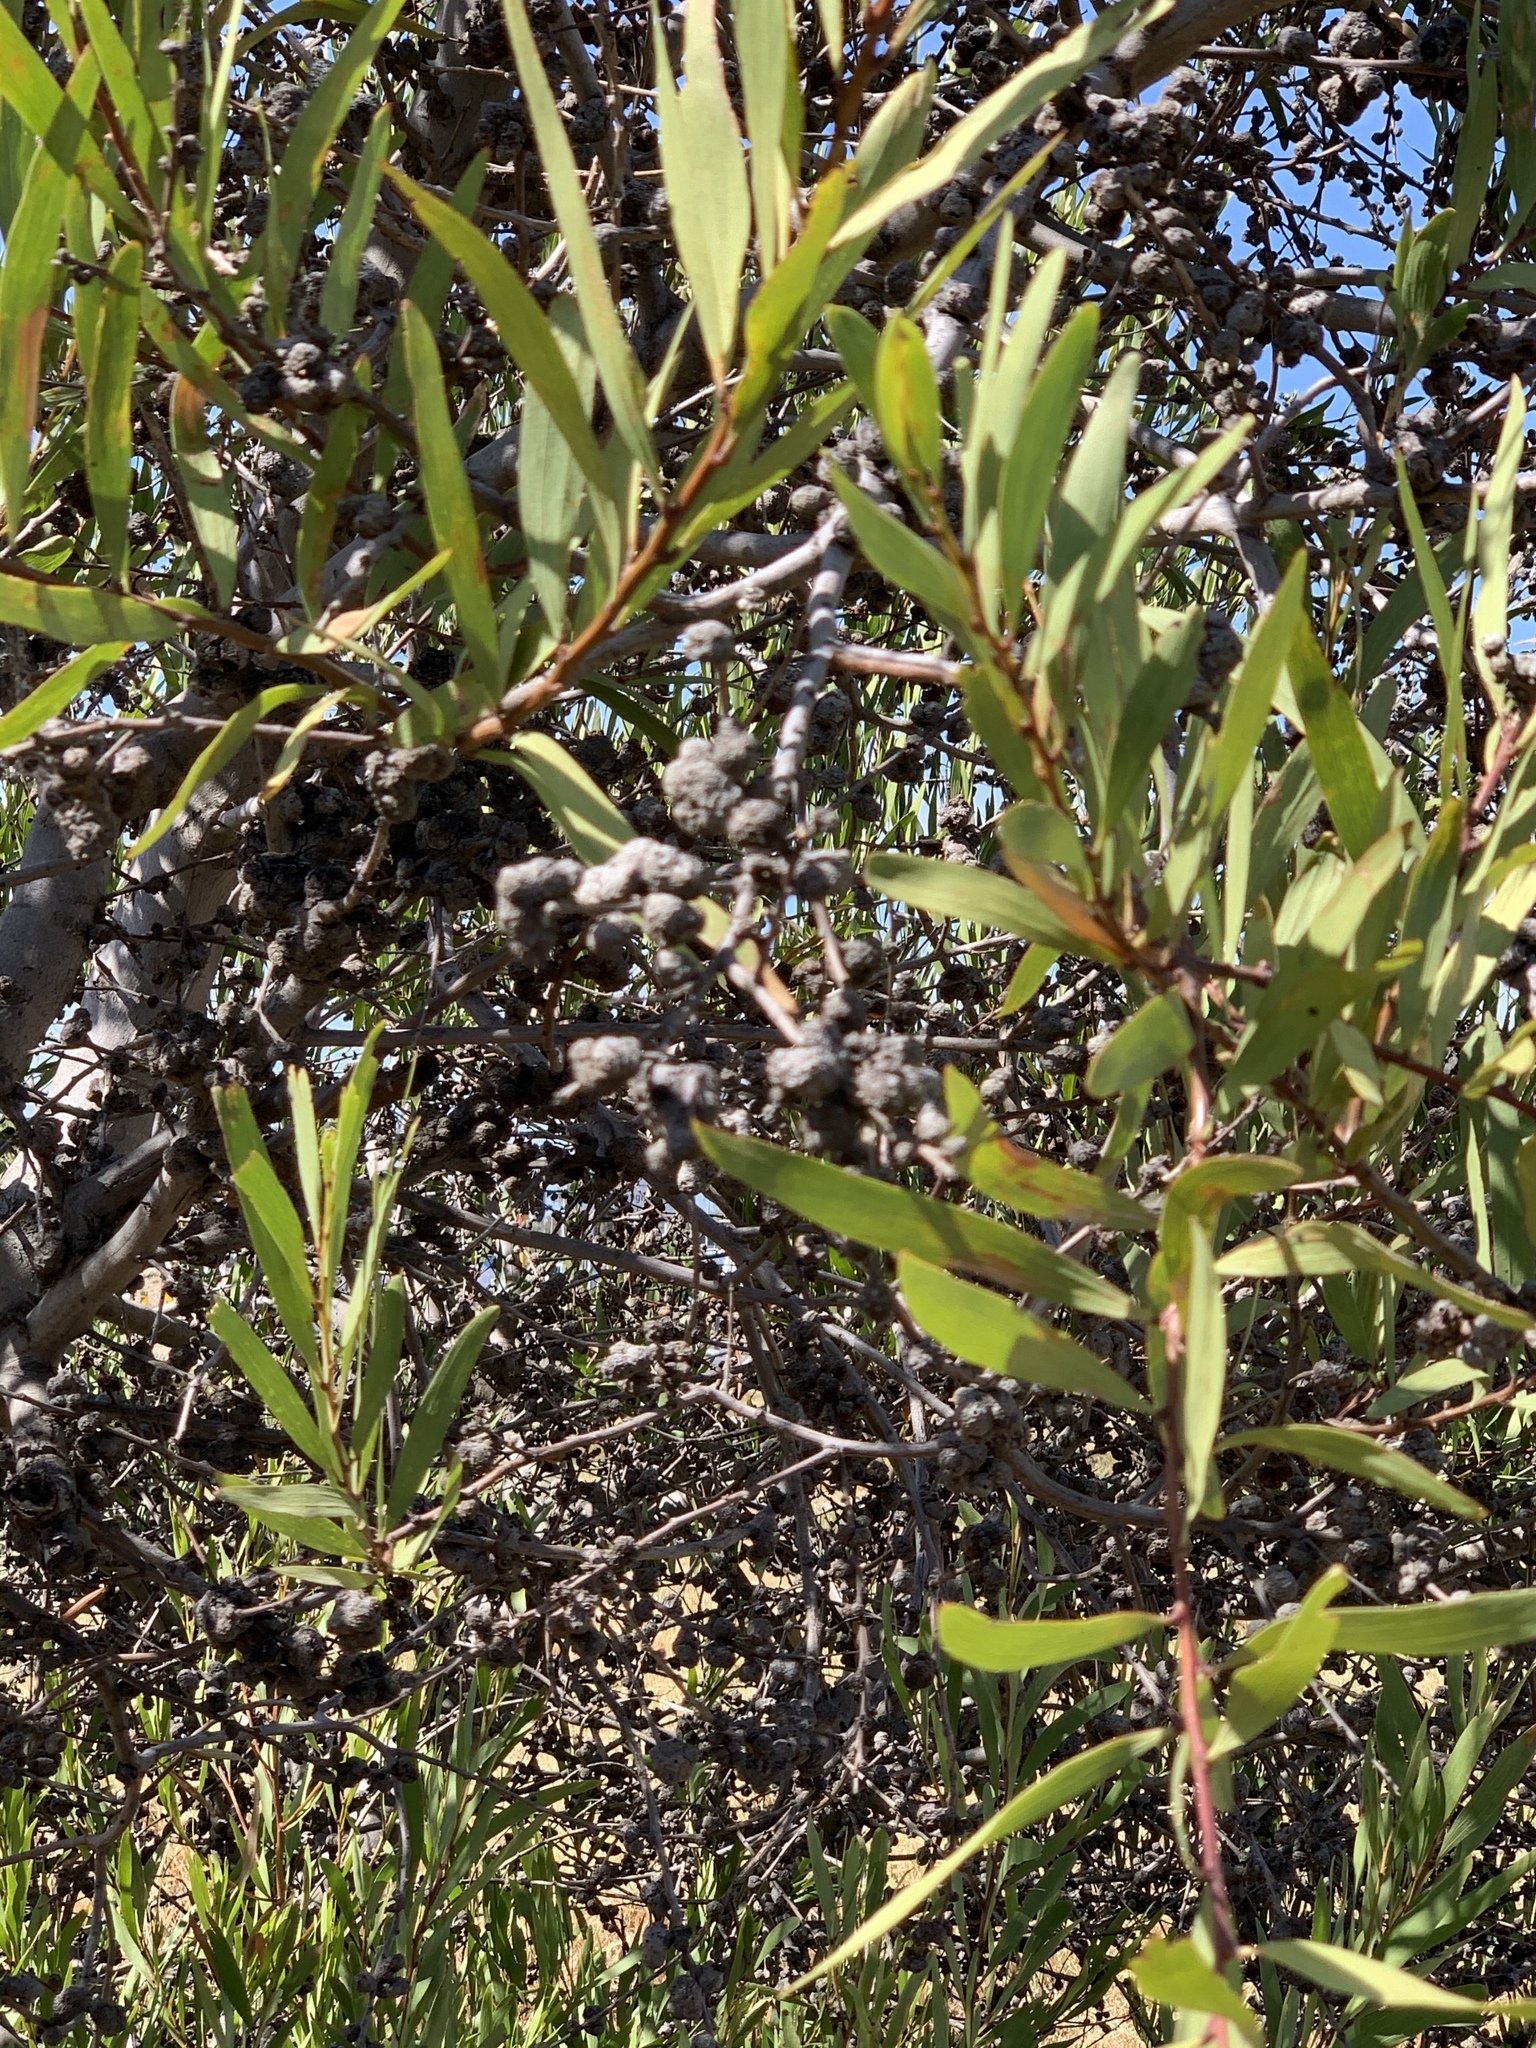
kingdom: Plantae
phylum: Tracheophyta
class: Magnoliopsida
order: Fabales
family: Fabaceae
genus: Acacia
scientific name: Acacia longifolia
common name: Sydney golden wattle
